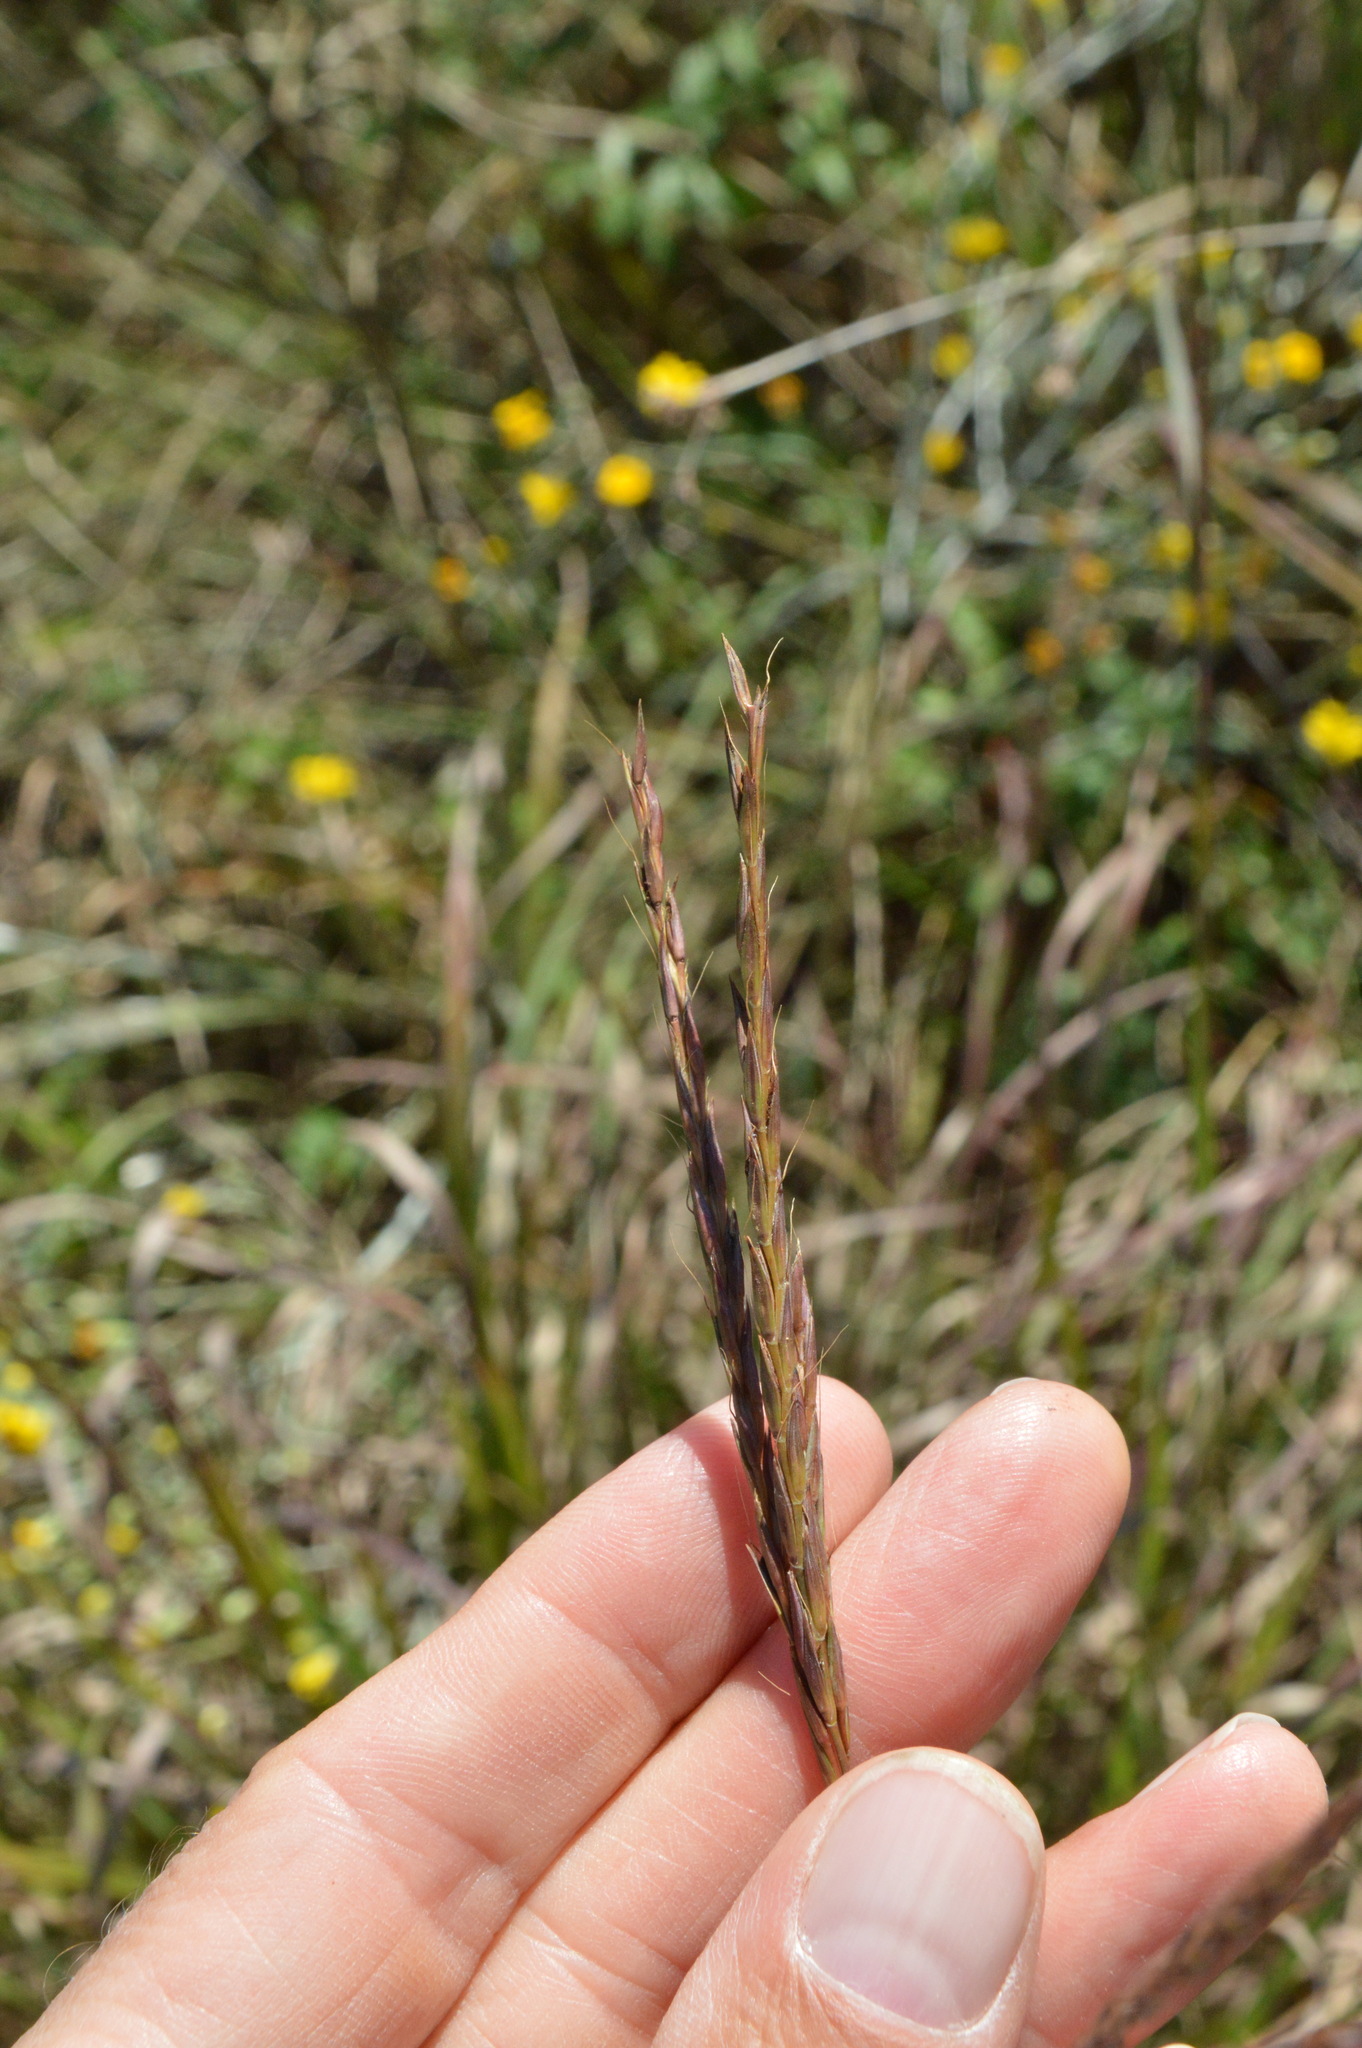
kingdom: Plantae
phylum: Tracheophyta
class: Liliopsida
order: Poales
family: Poaceae
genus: Andropogon
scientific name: Andropogon gerardi
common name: Big bluestem
